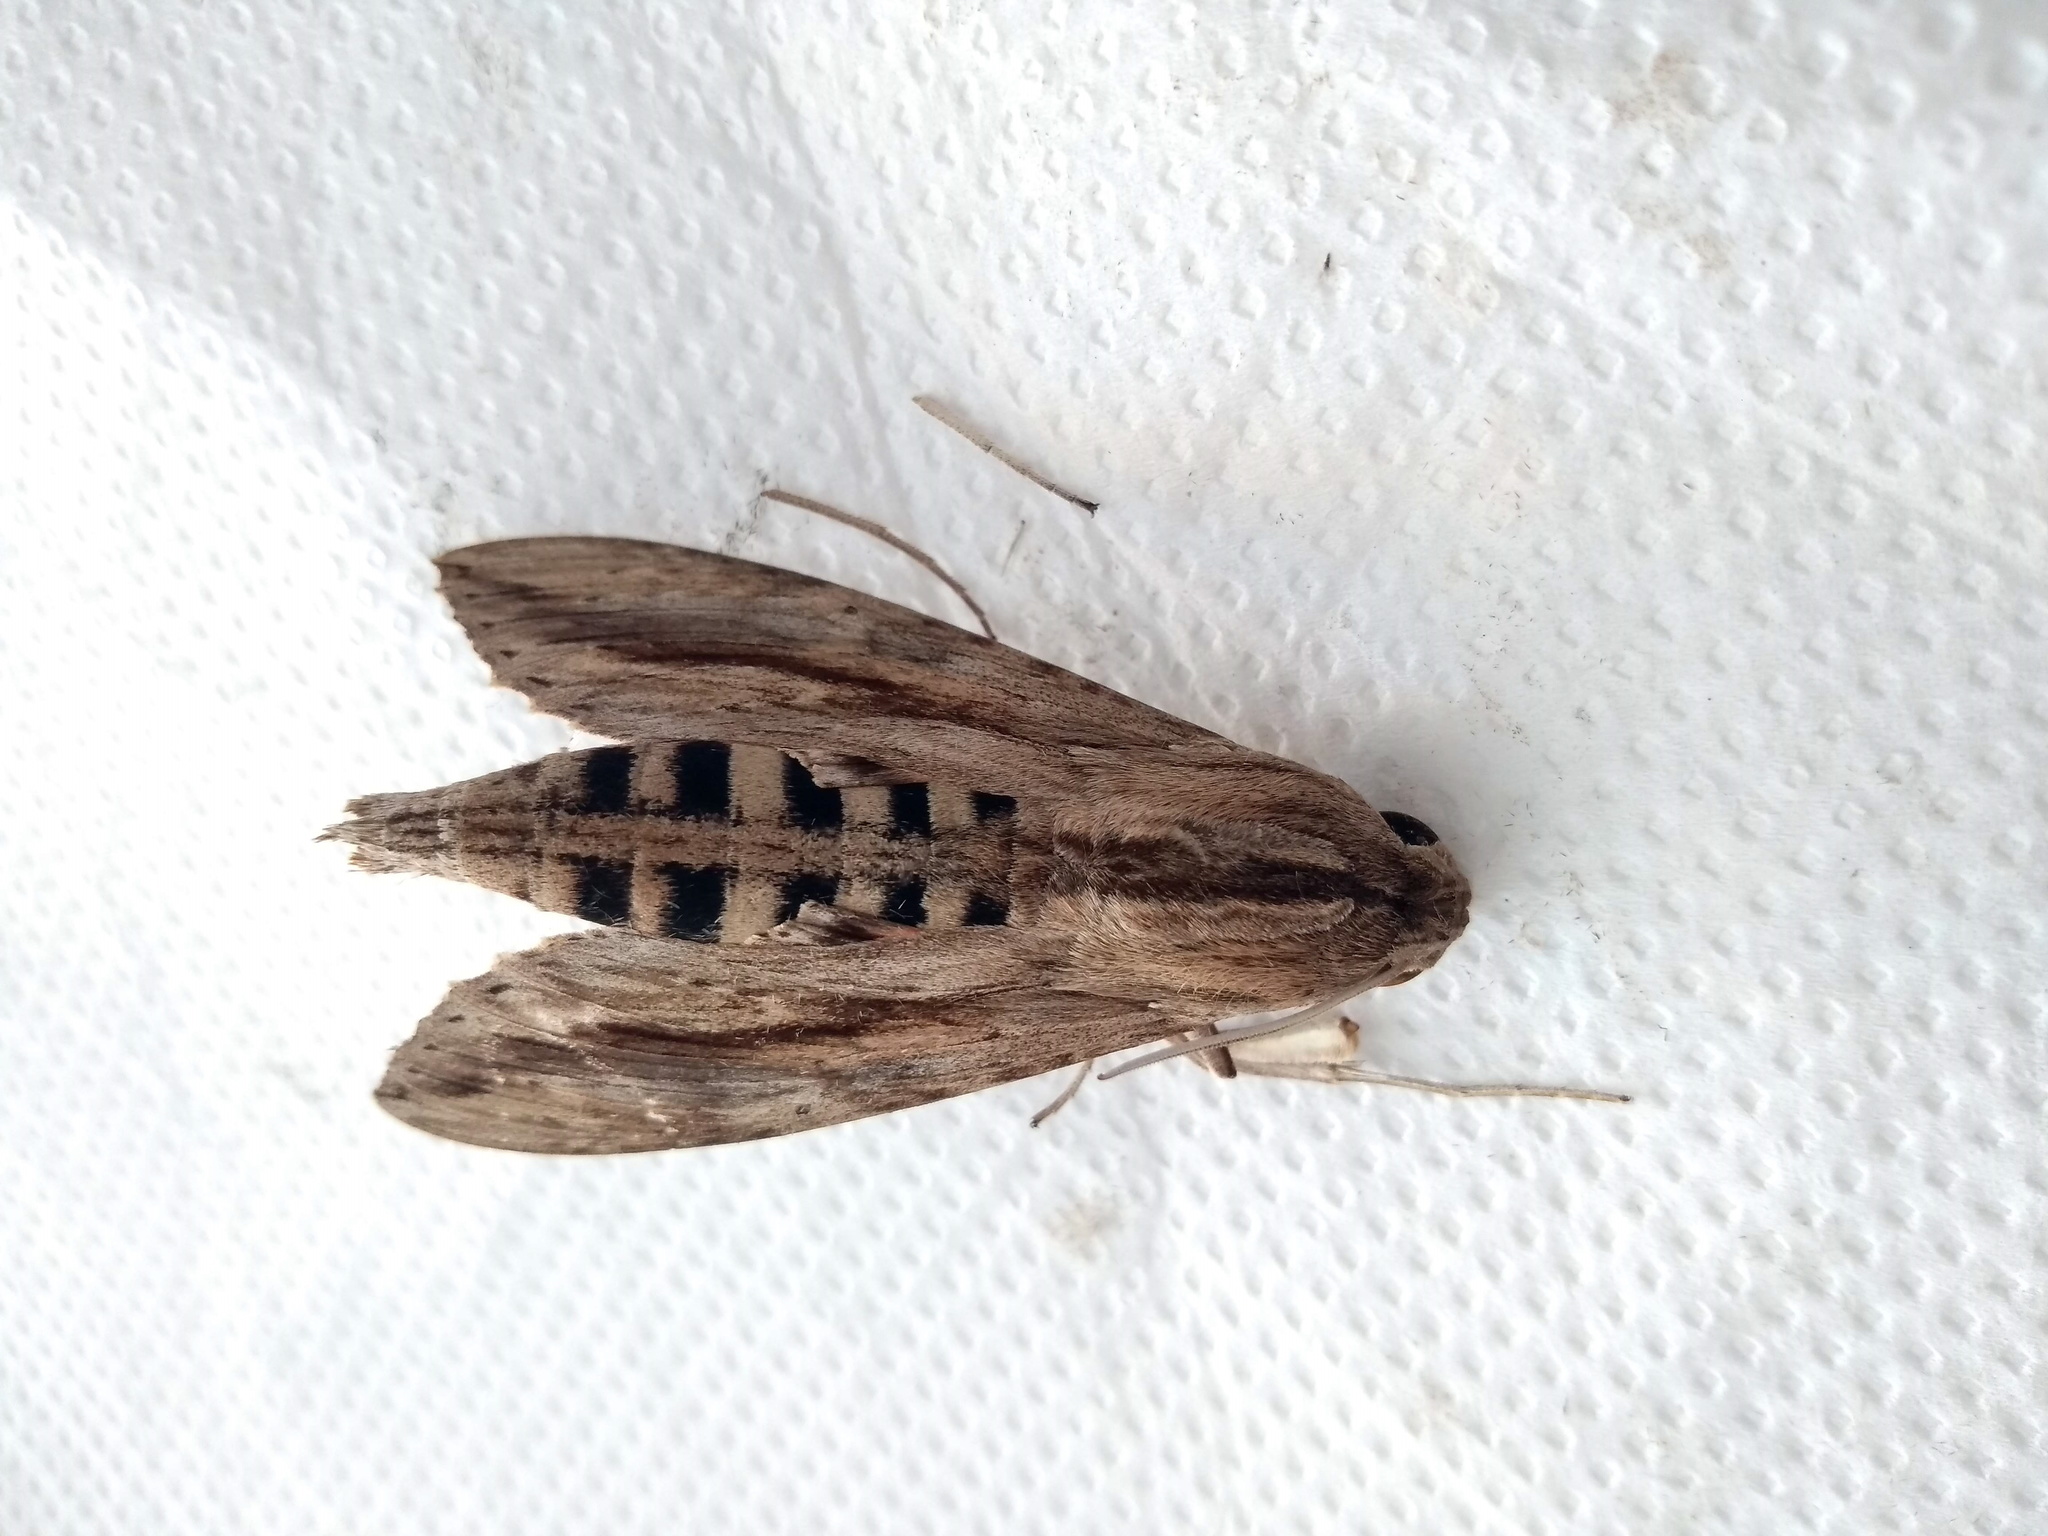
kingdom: Animalia
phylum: Arthropoda
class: Insecta
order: Lepidoptera
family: Sphingidae
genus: Erinnyis
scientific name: Erinnyis ello
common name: Ello sphinx
